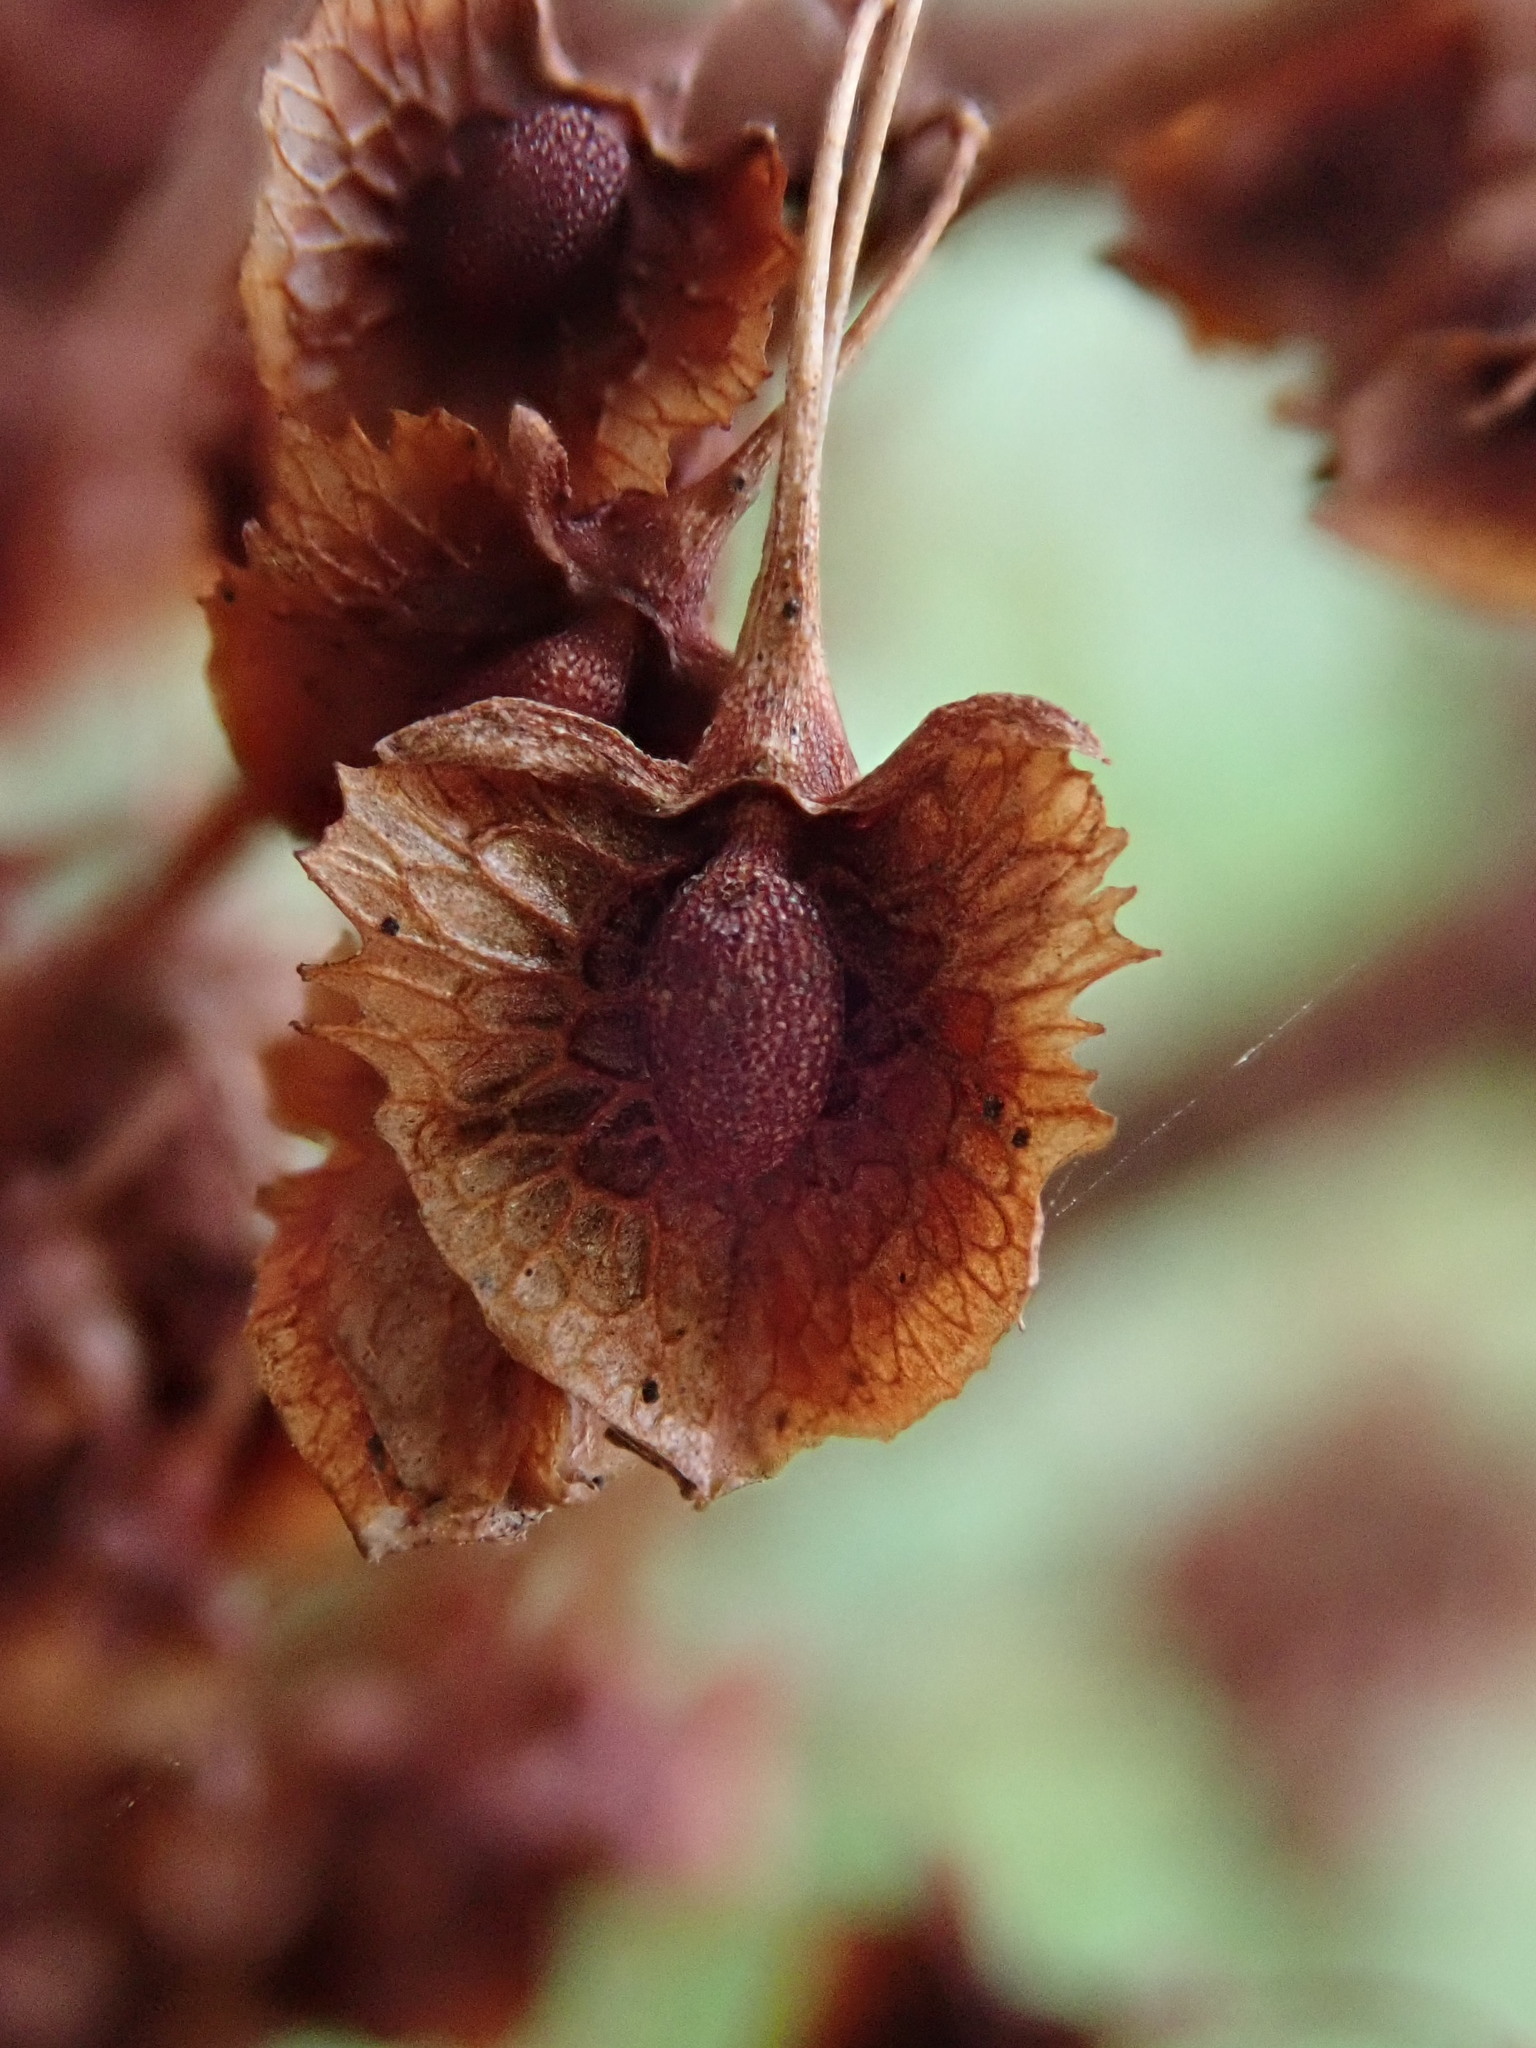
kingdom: Plantae
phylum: Tracheophyta
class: Magnoliopsida
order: Caryophyllales
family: Polygonaceae
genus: Rumex
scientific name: Rumex cristatus
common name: Greek dock
